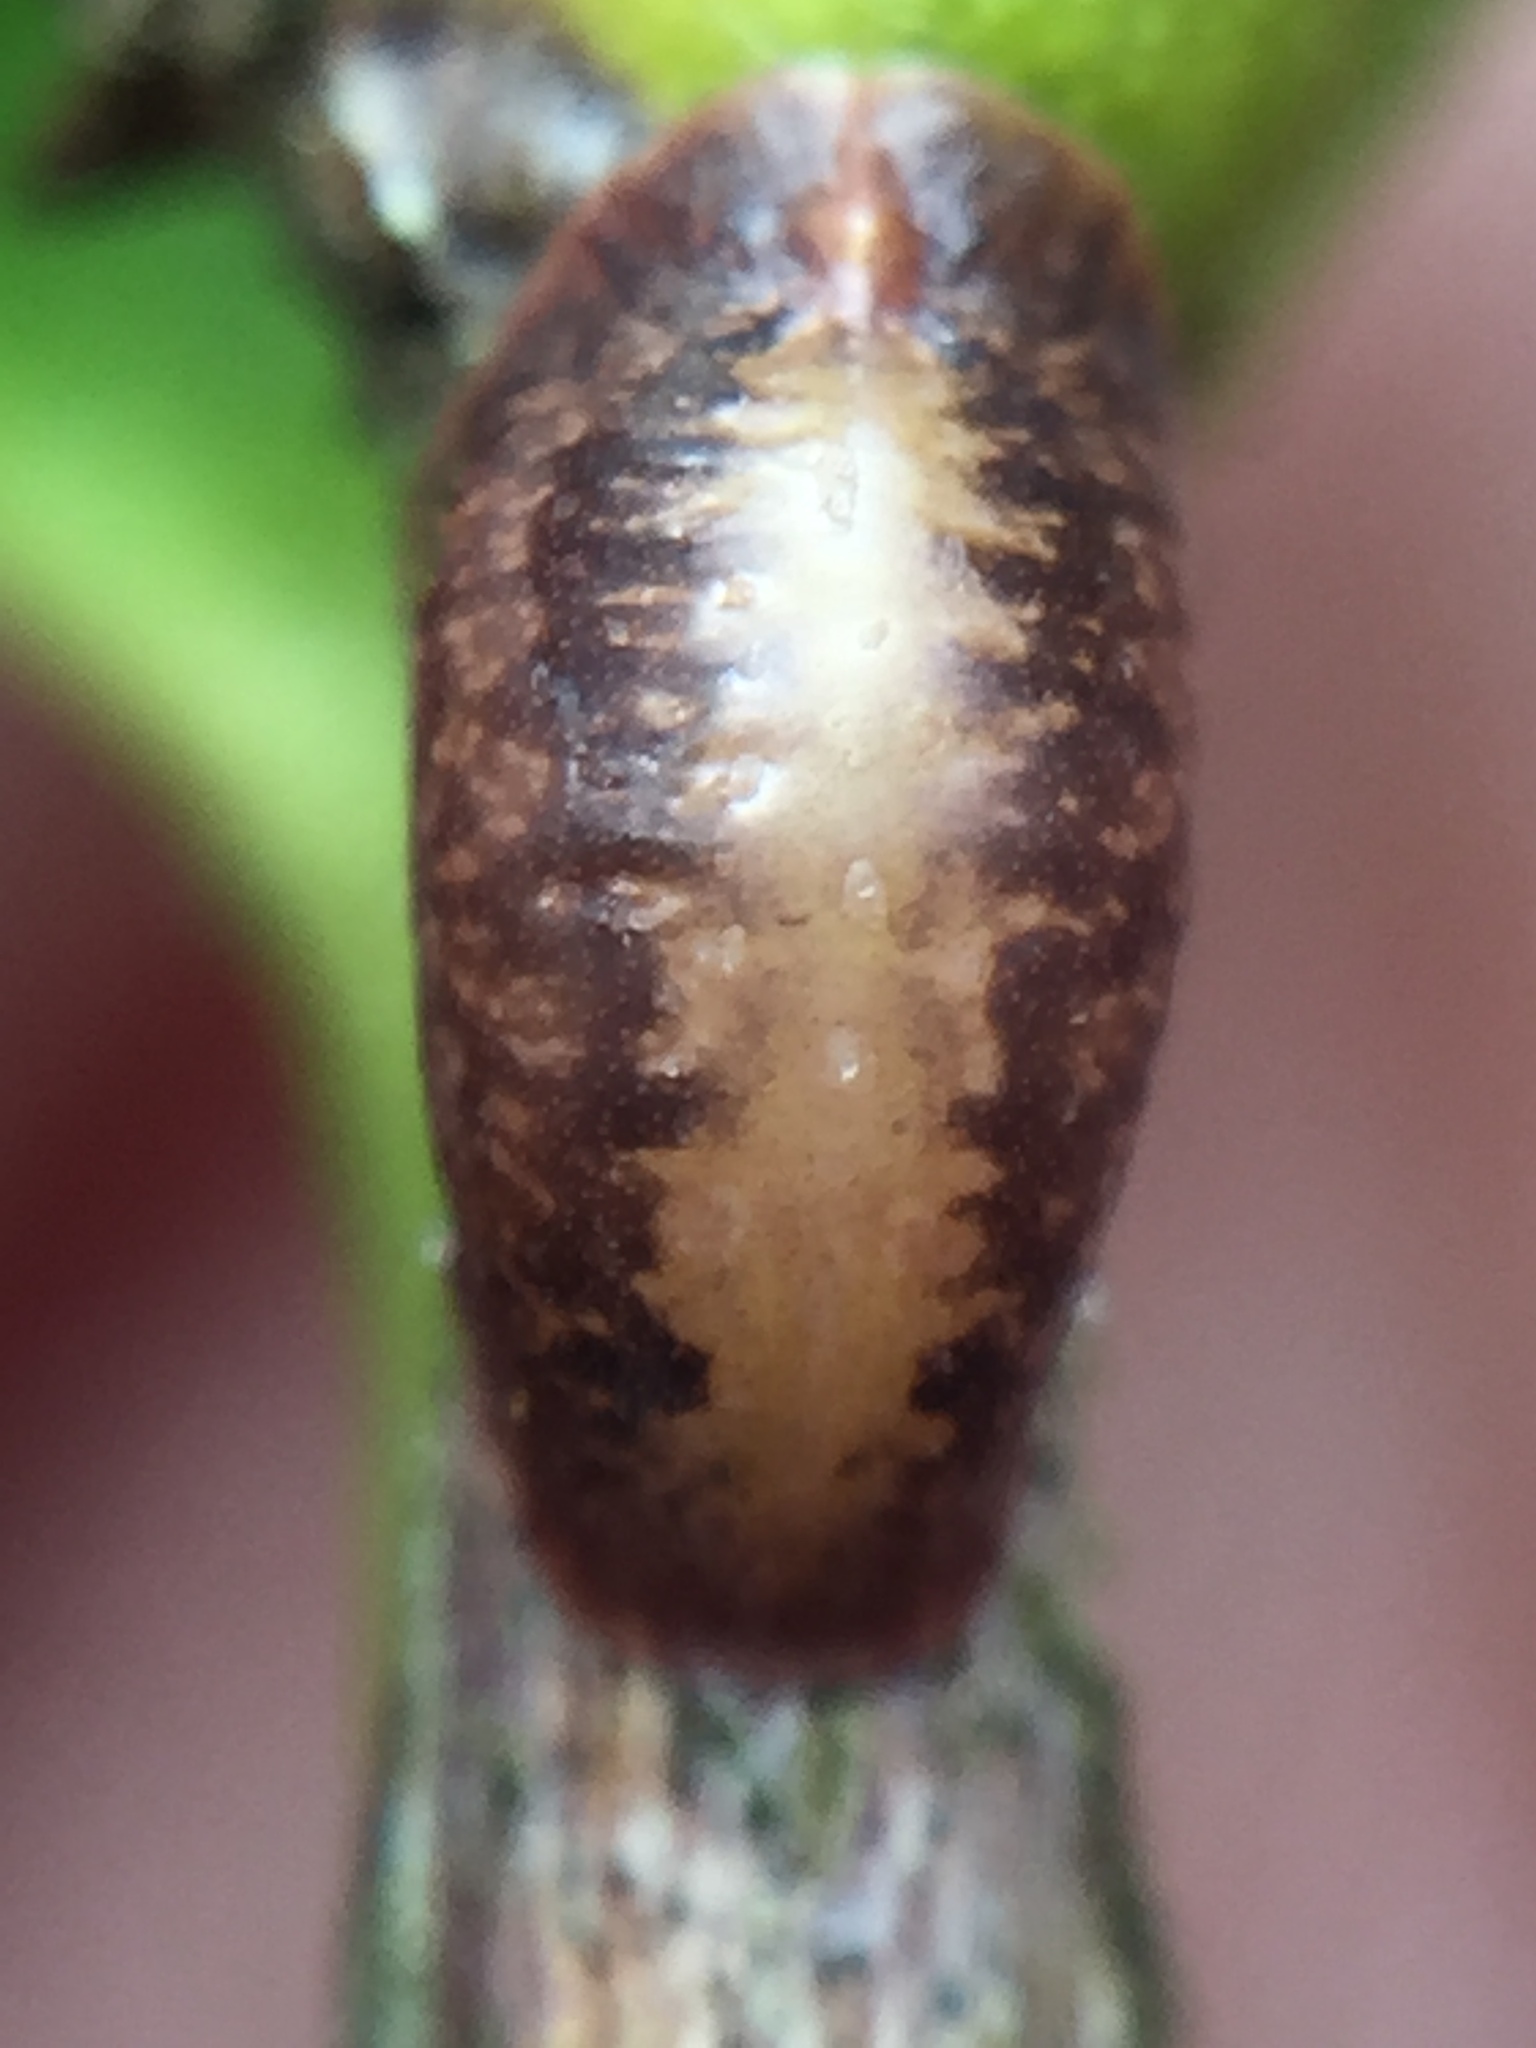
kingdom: Animalia
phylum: Arthropoda
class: Insecta
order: Hemiptera
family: Coccidae
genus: Pulvinaria
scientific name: Pulvinaria floccifera
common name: Cottony camellia scale
